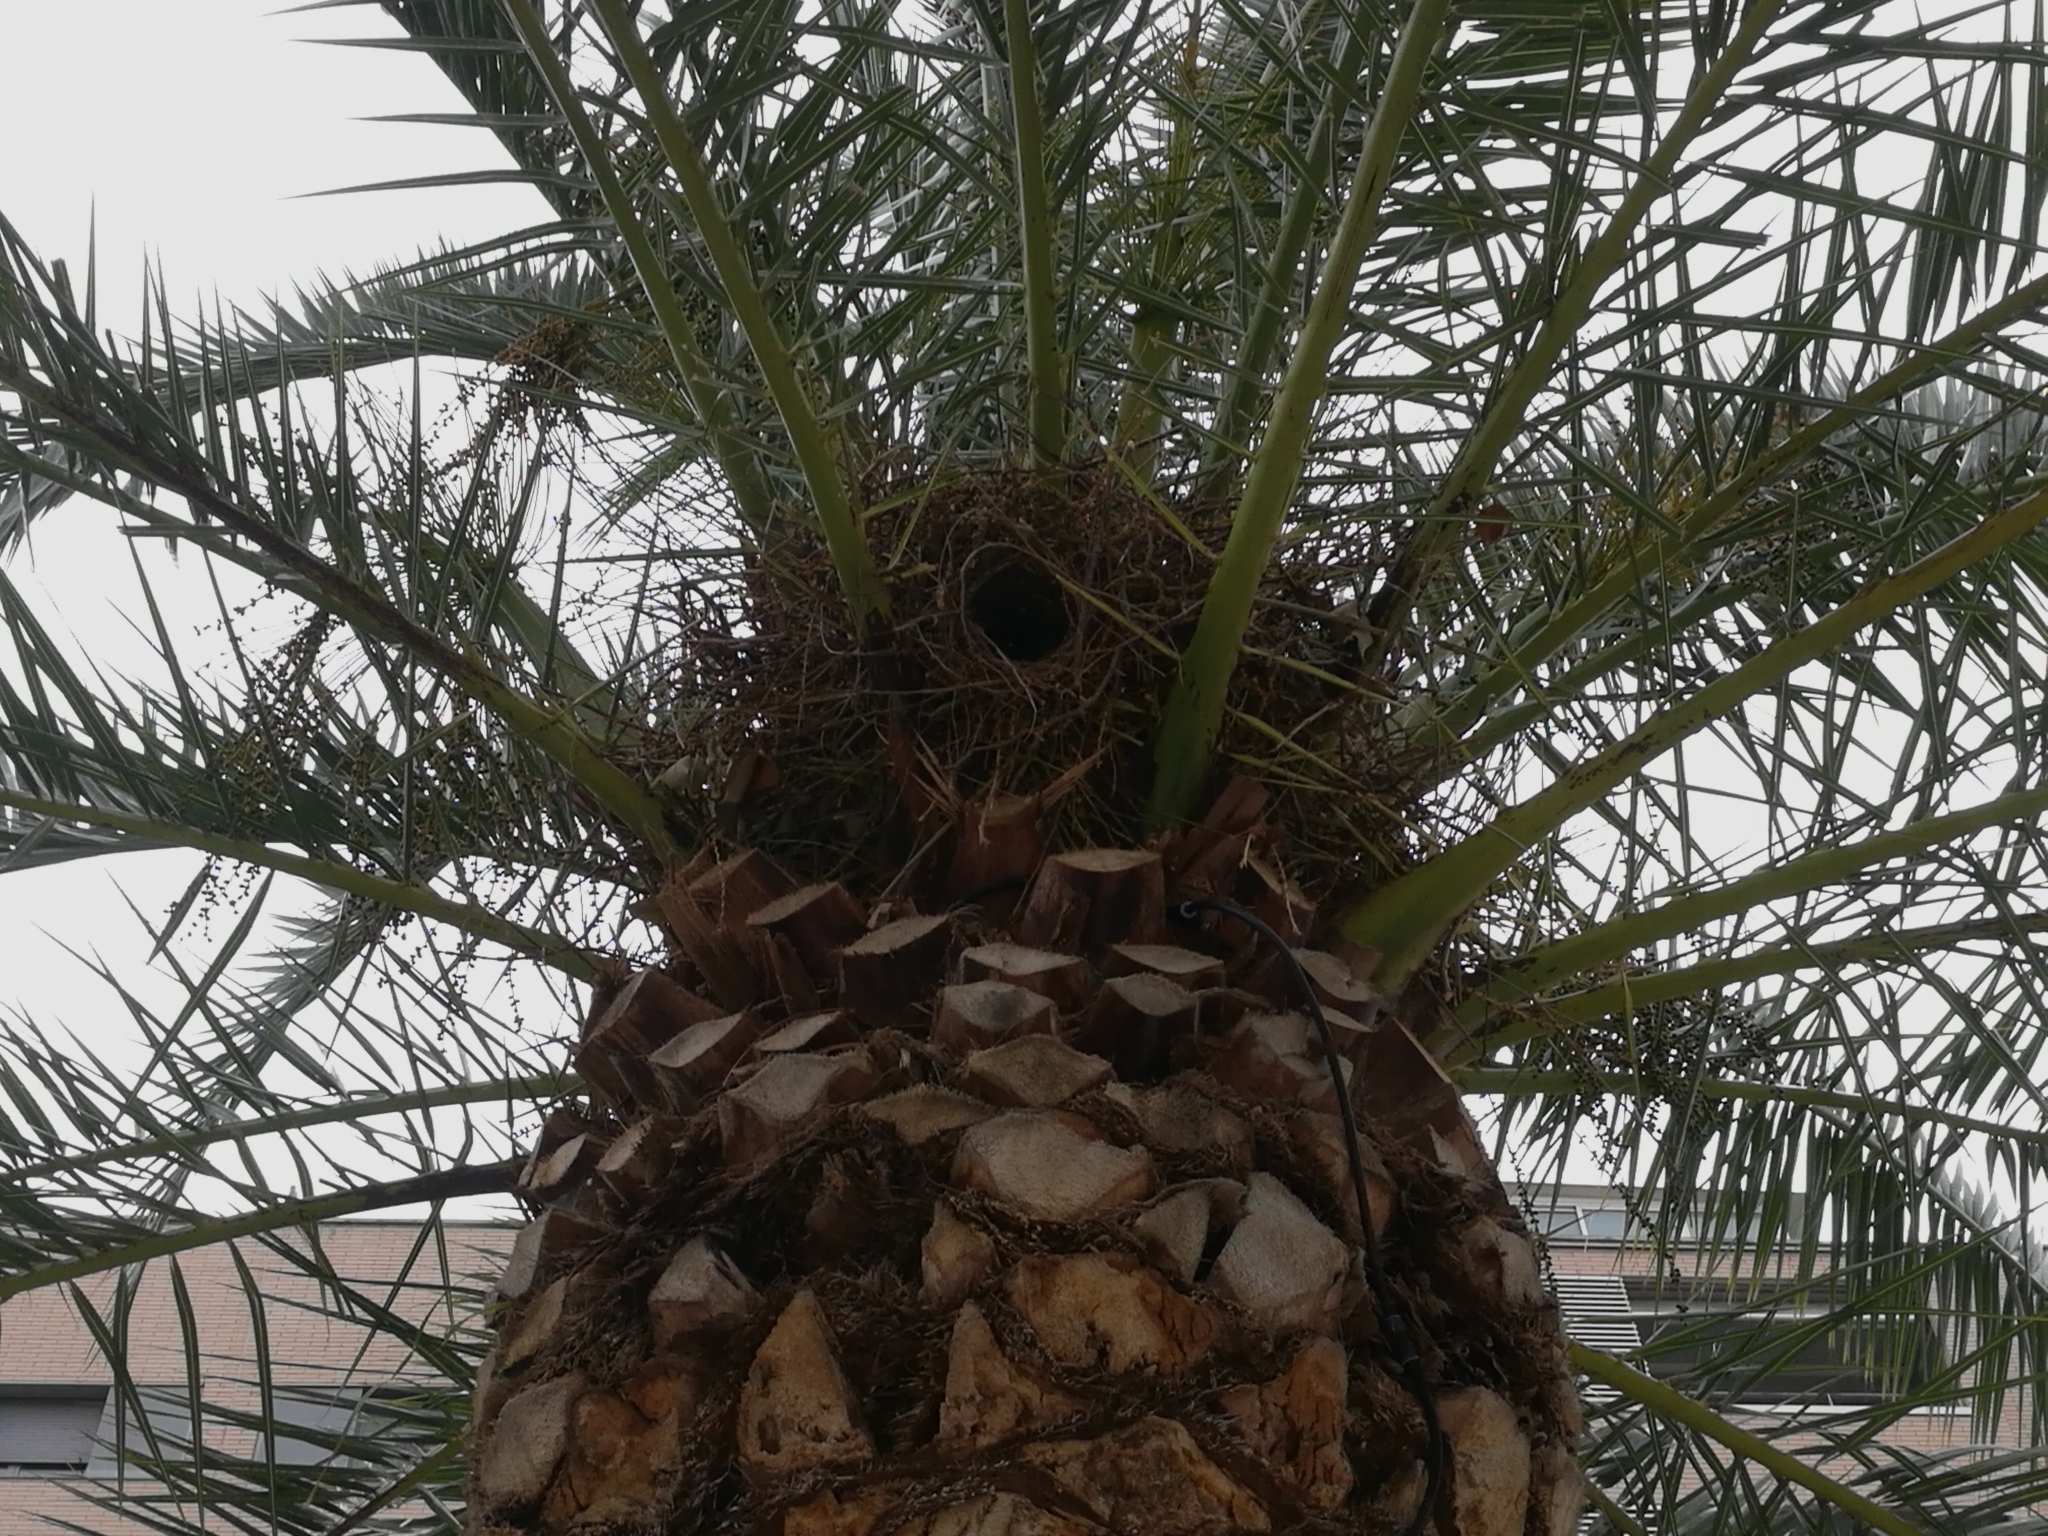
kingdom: Animalia
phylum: Chordata
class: Aves
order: Psittaciformes
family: Psittacidae
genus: Myiopsitta
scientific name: Myiopsitta monachus
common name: Monk parakeet
